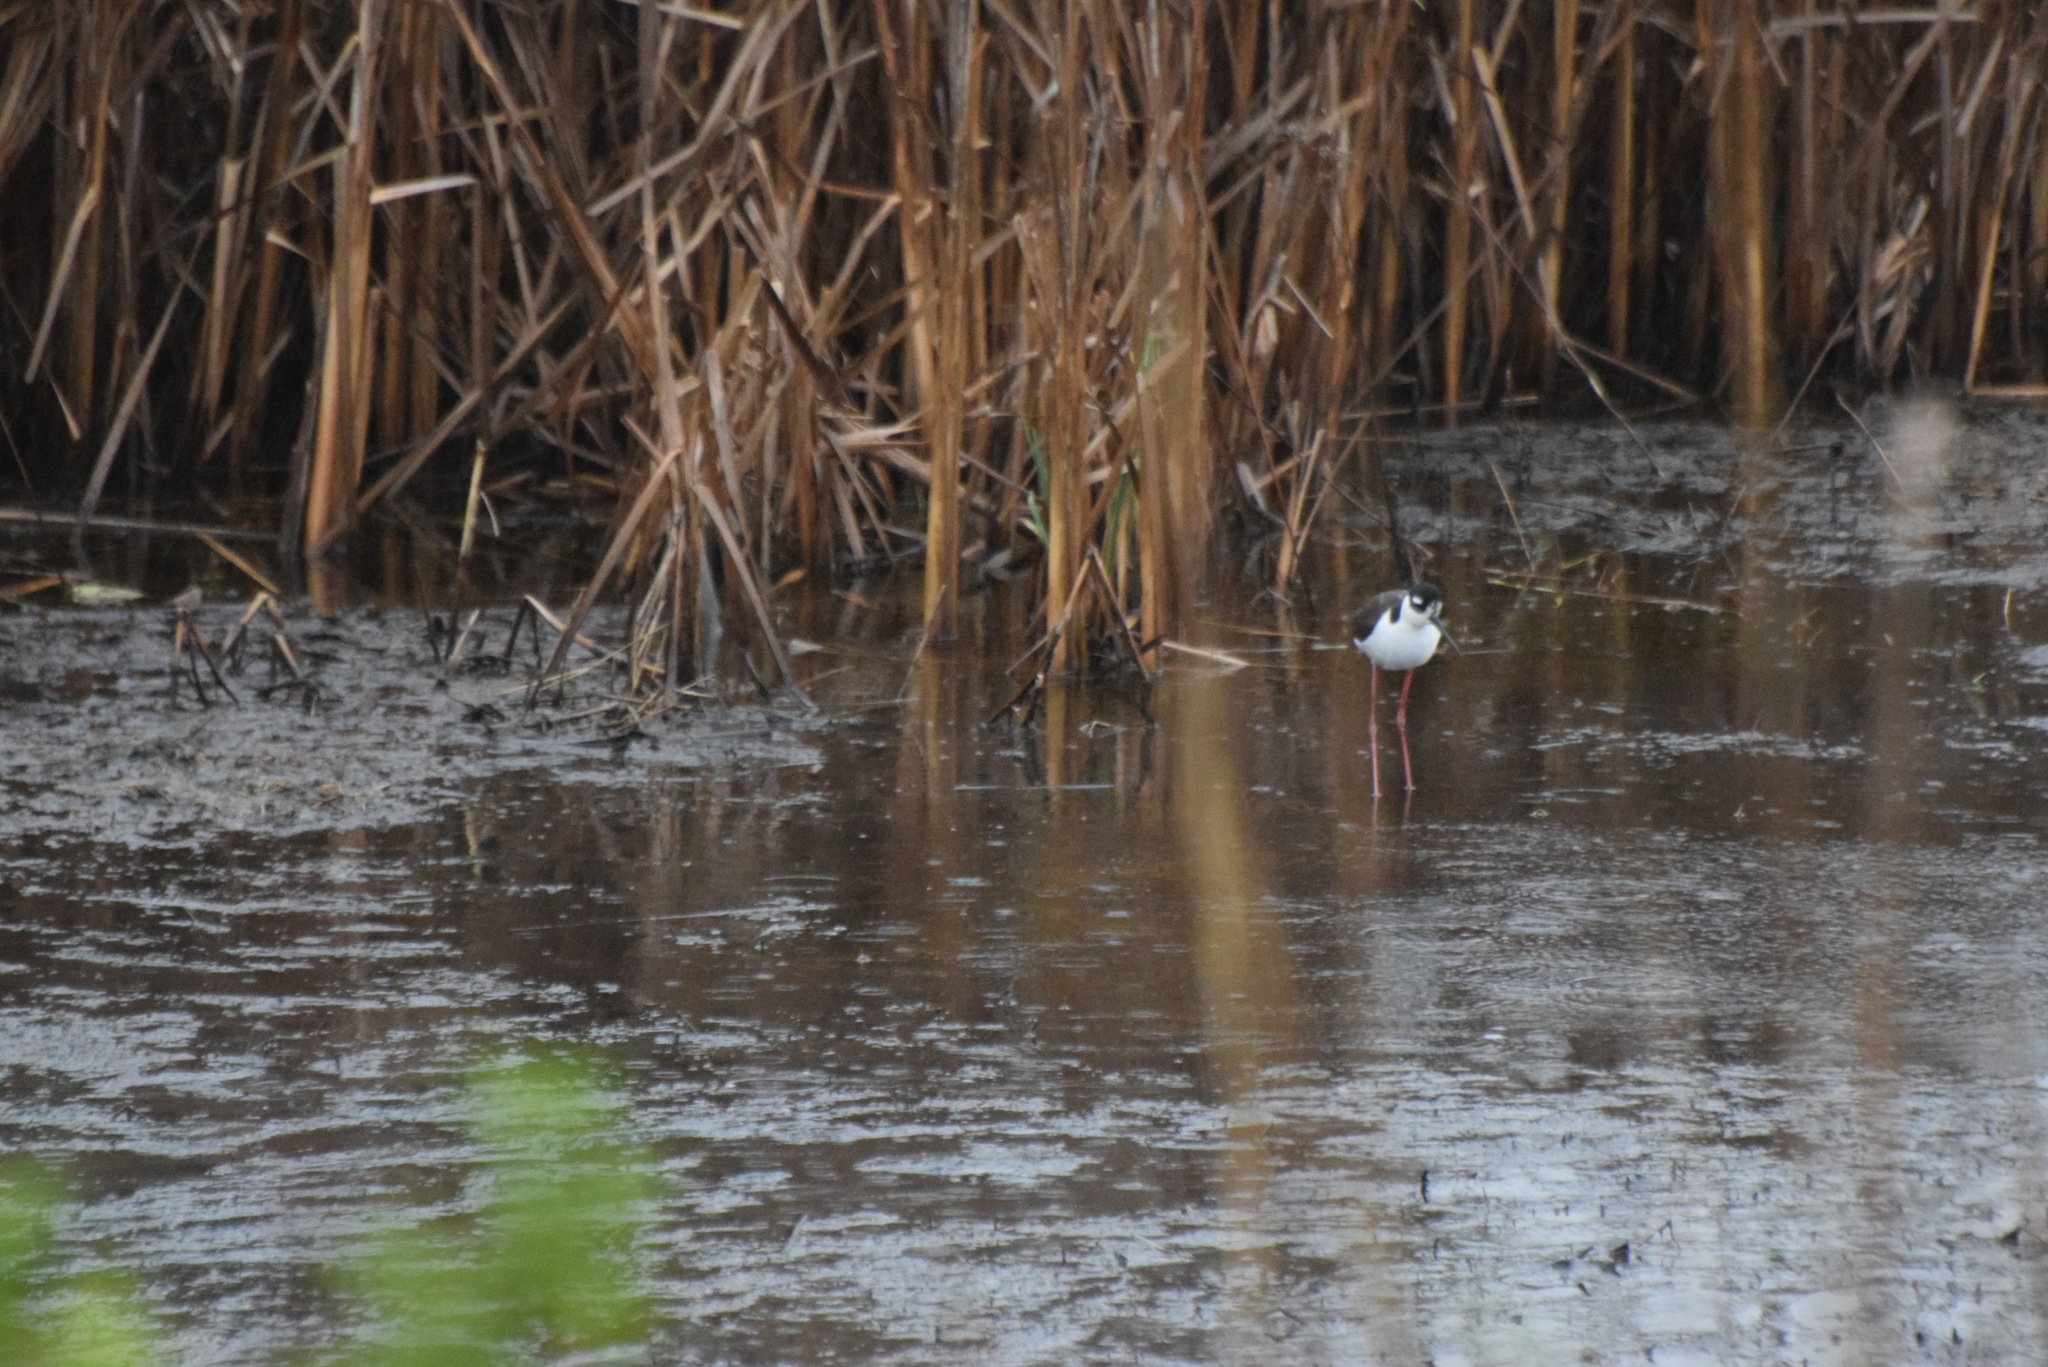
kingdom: Animalia
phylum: Chordata
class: Aves
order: Charadriiformes
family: Recurvirostridae
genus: Himantopus
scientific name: Himantopus mexicanus
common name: Black-necked stilt
